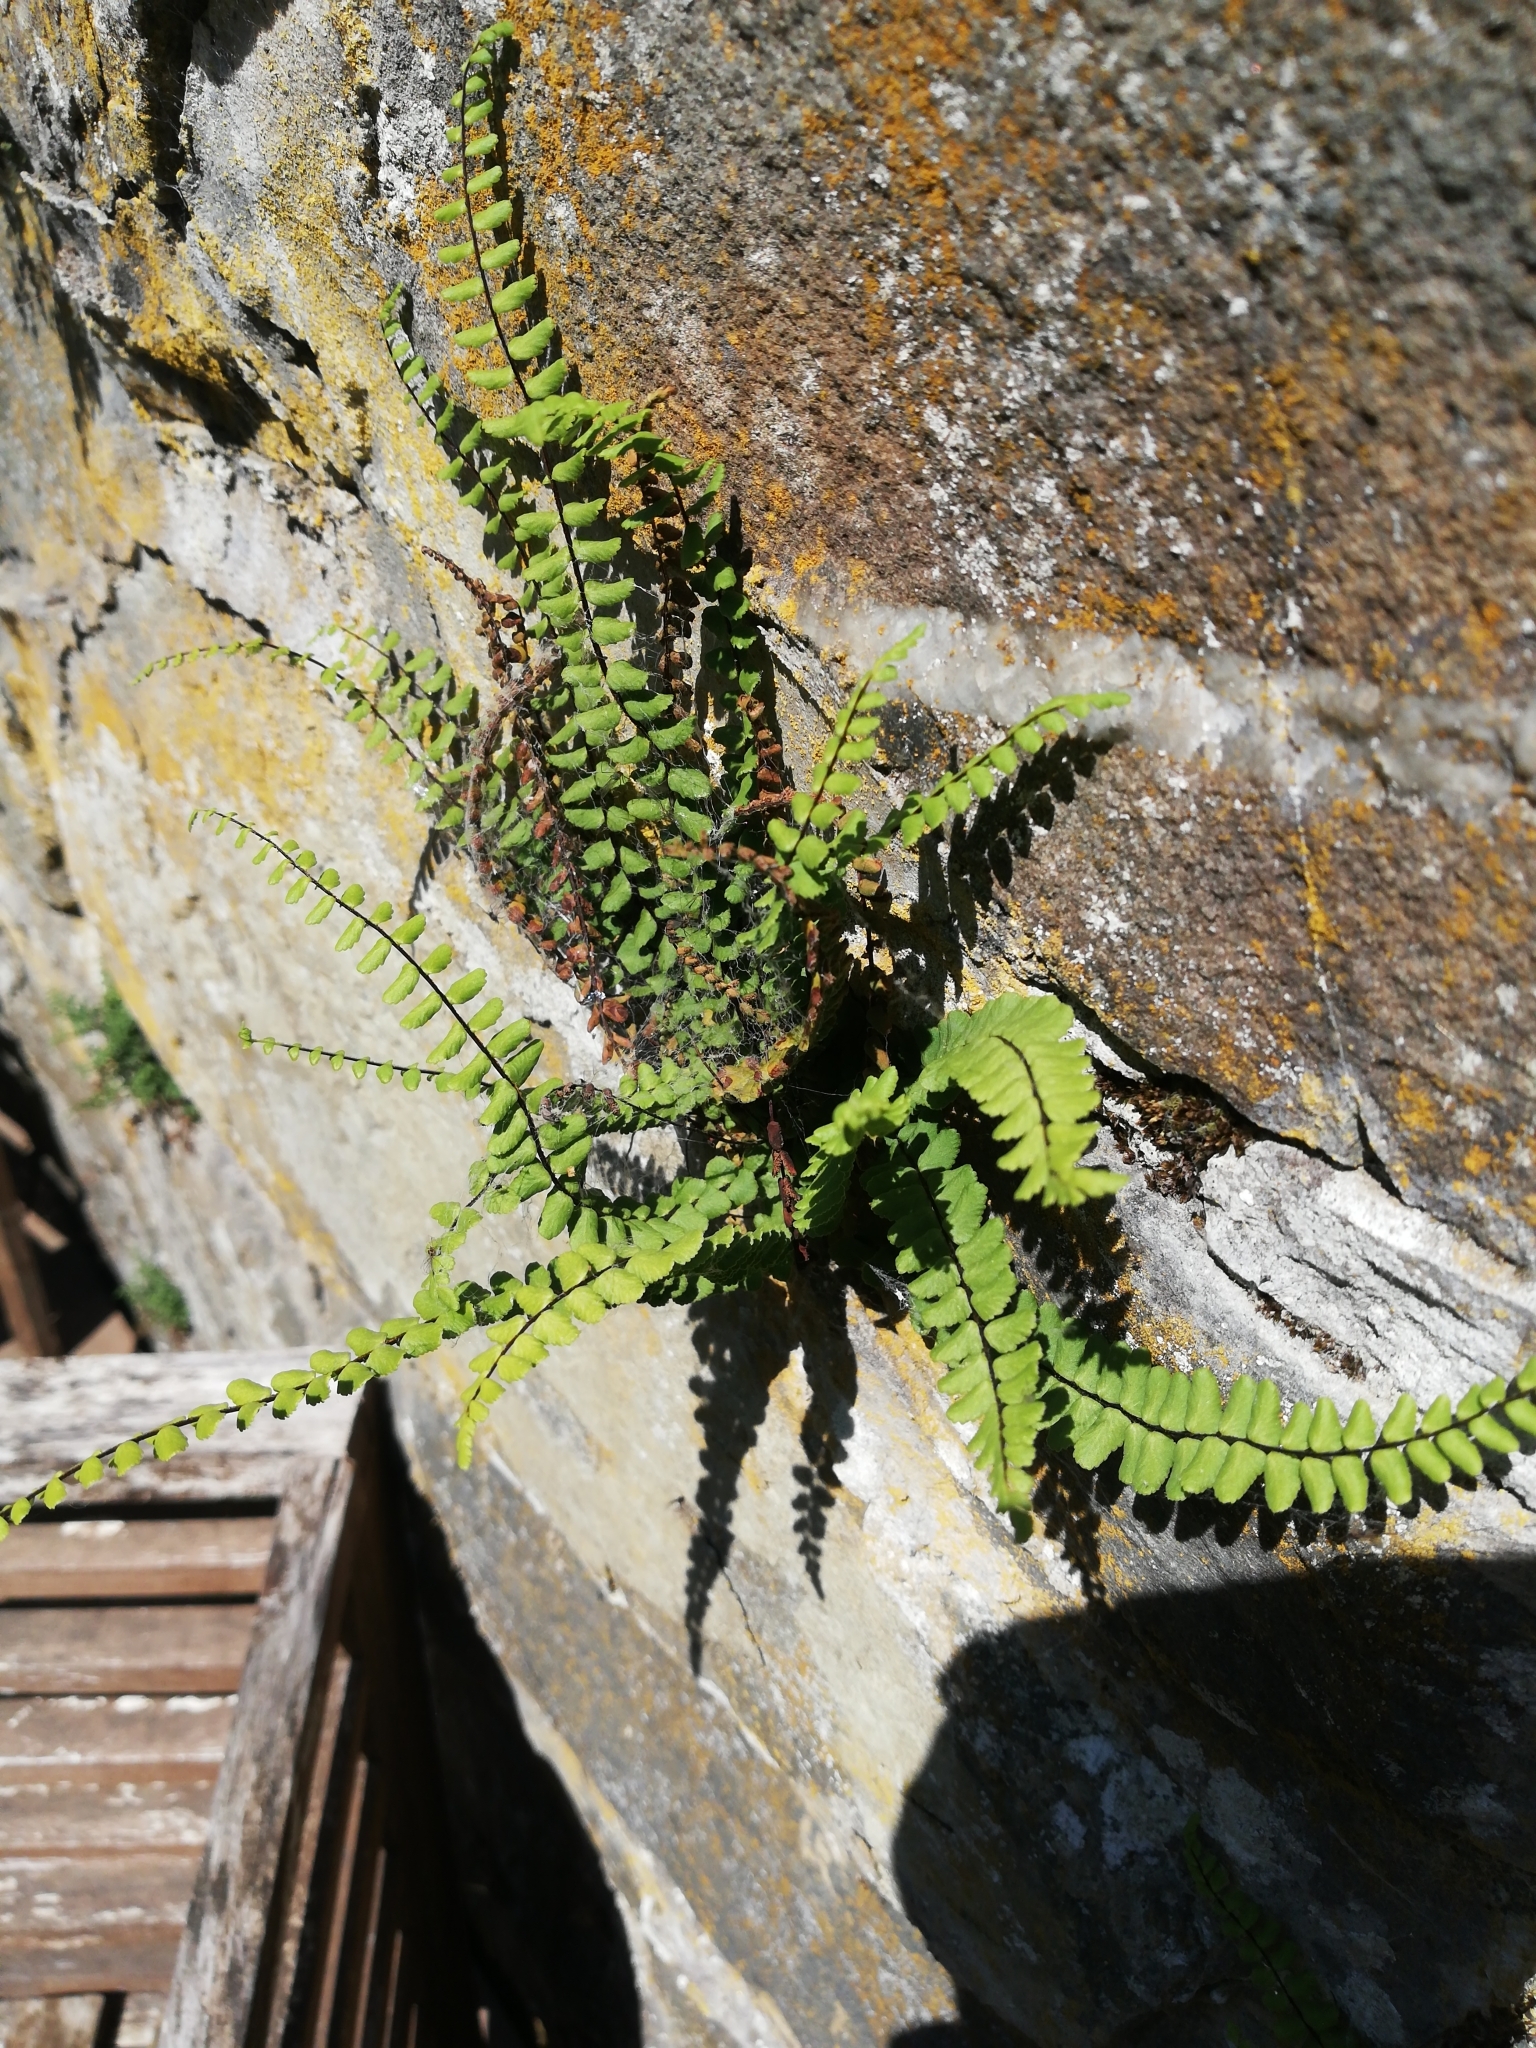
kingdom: Plantae
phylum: Tracheophyta
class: Polypodiopsida
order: Polypodiales
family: Aspleniaceae
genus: Asplenium
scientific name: Asplenium trichomanes
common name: Maidenhair spleenwort
